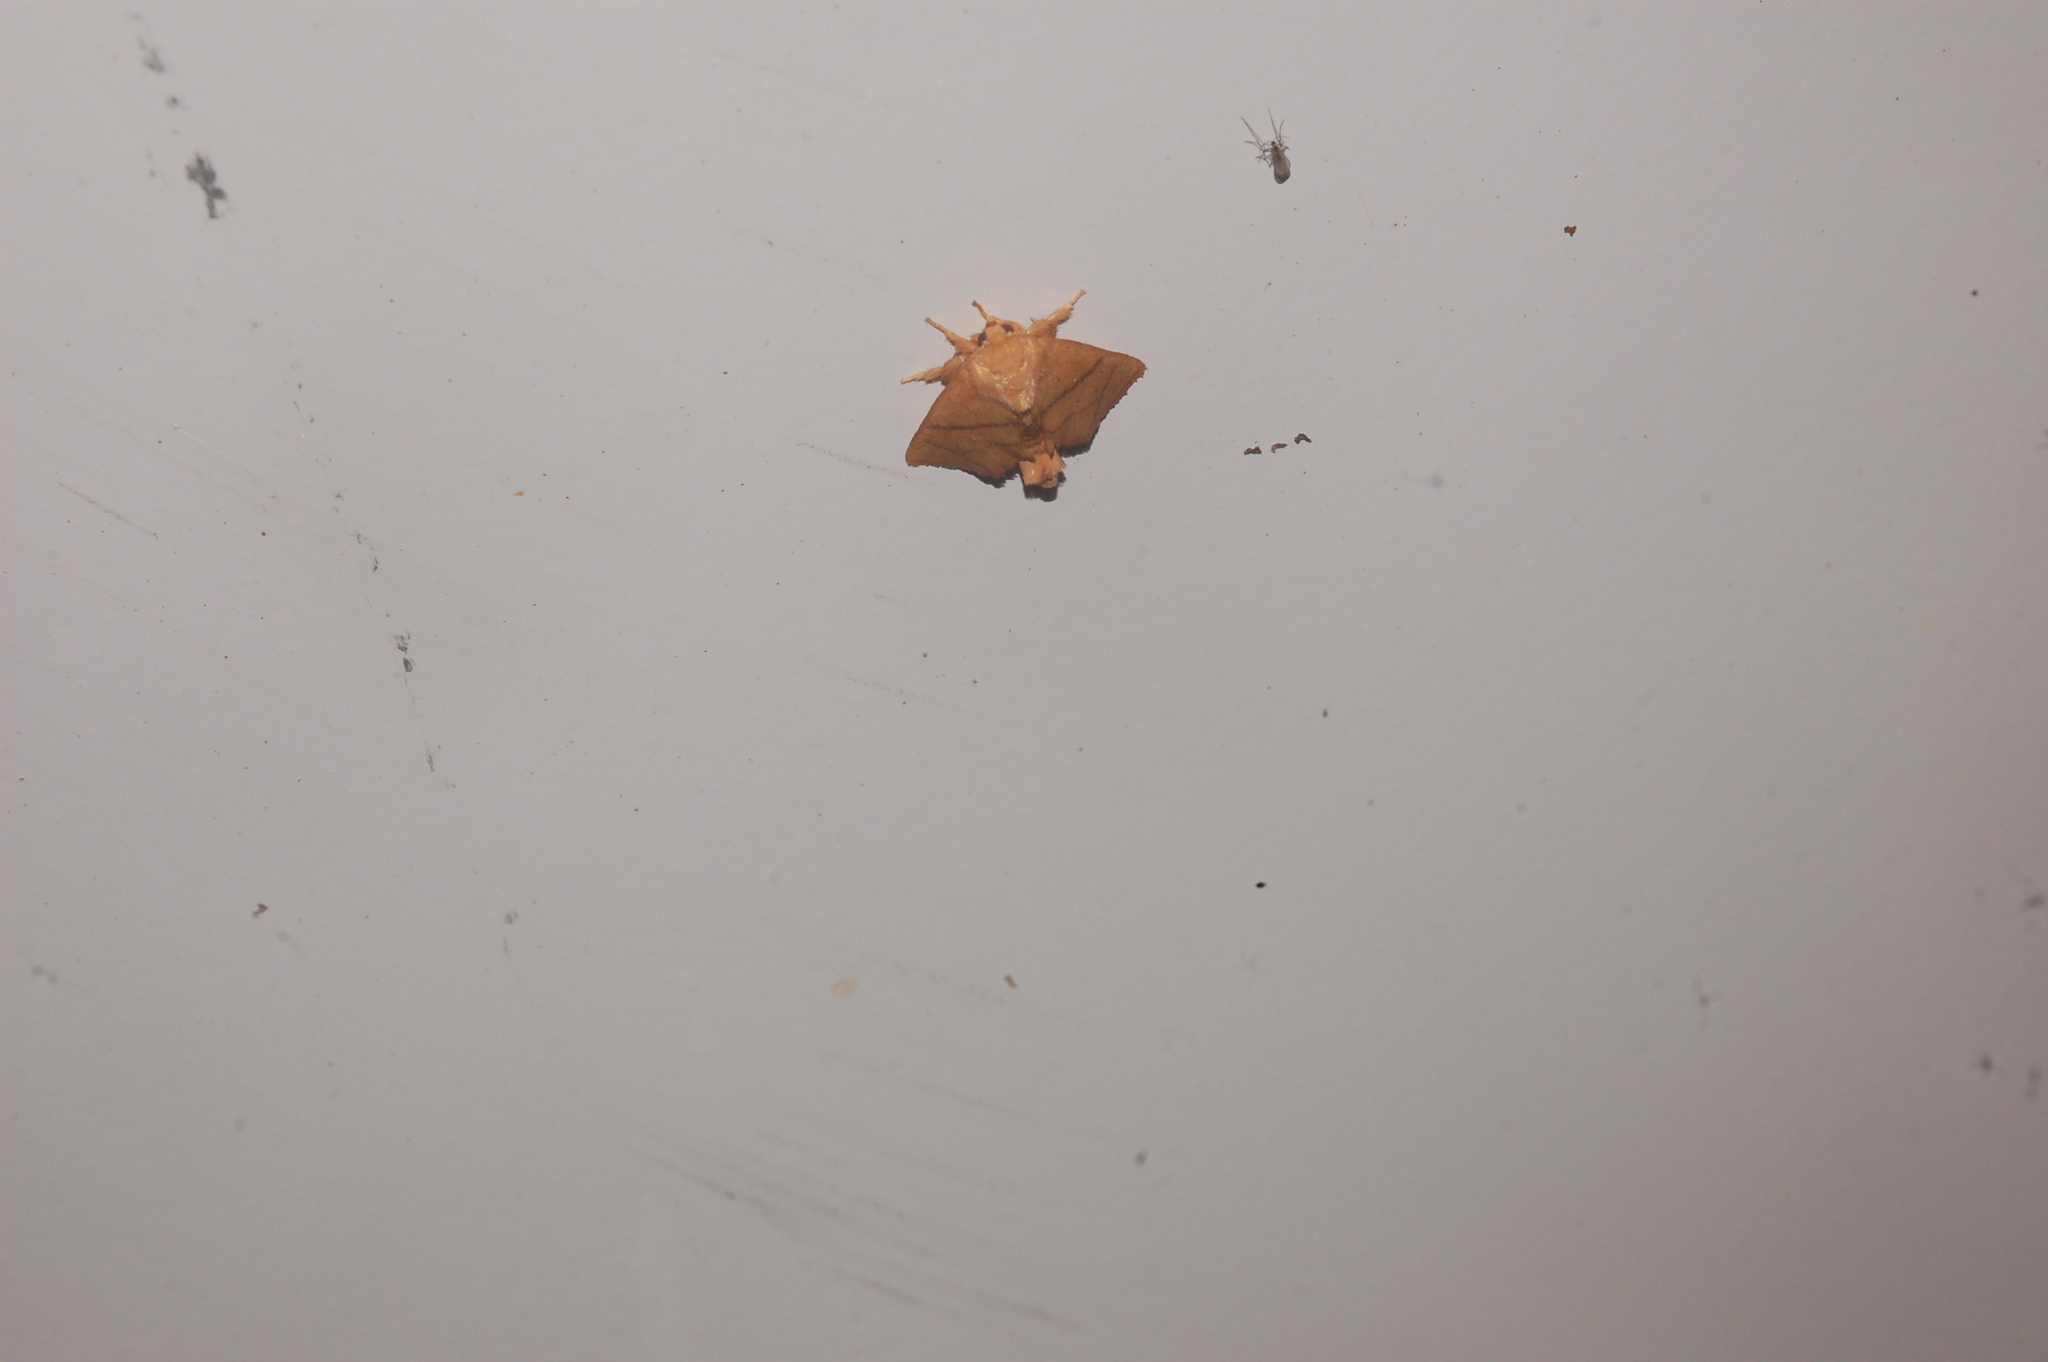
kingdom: Animalia
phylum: Arthropoda
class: Insecta
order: Lepidoptera
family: Limacodidae
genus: Apoda
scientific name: Apoda y-inversa
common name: Yellow-collared slug moth
